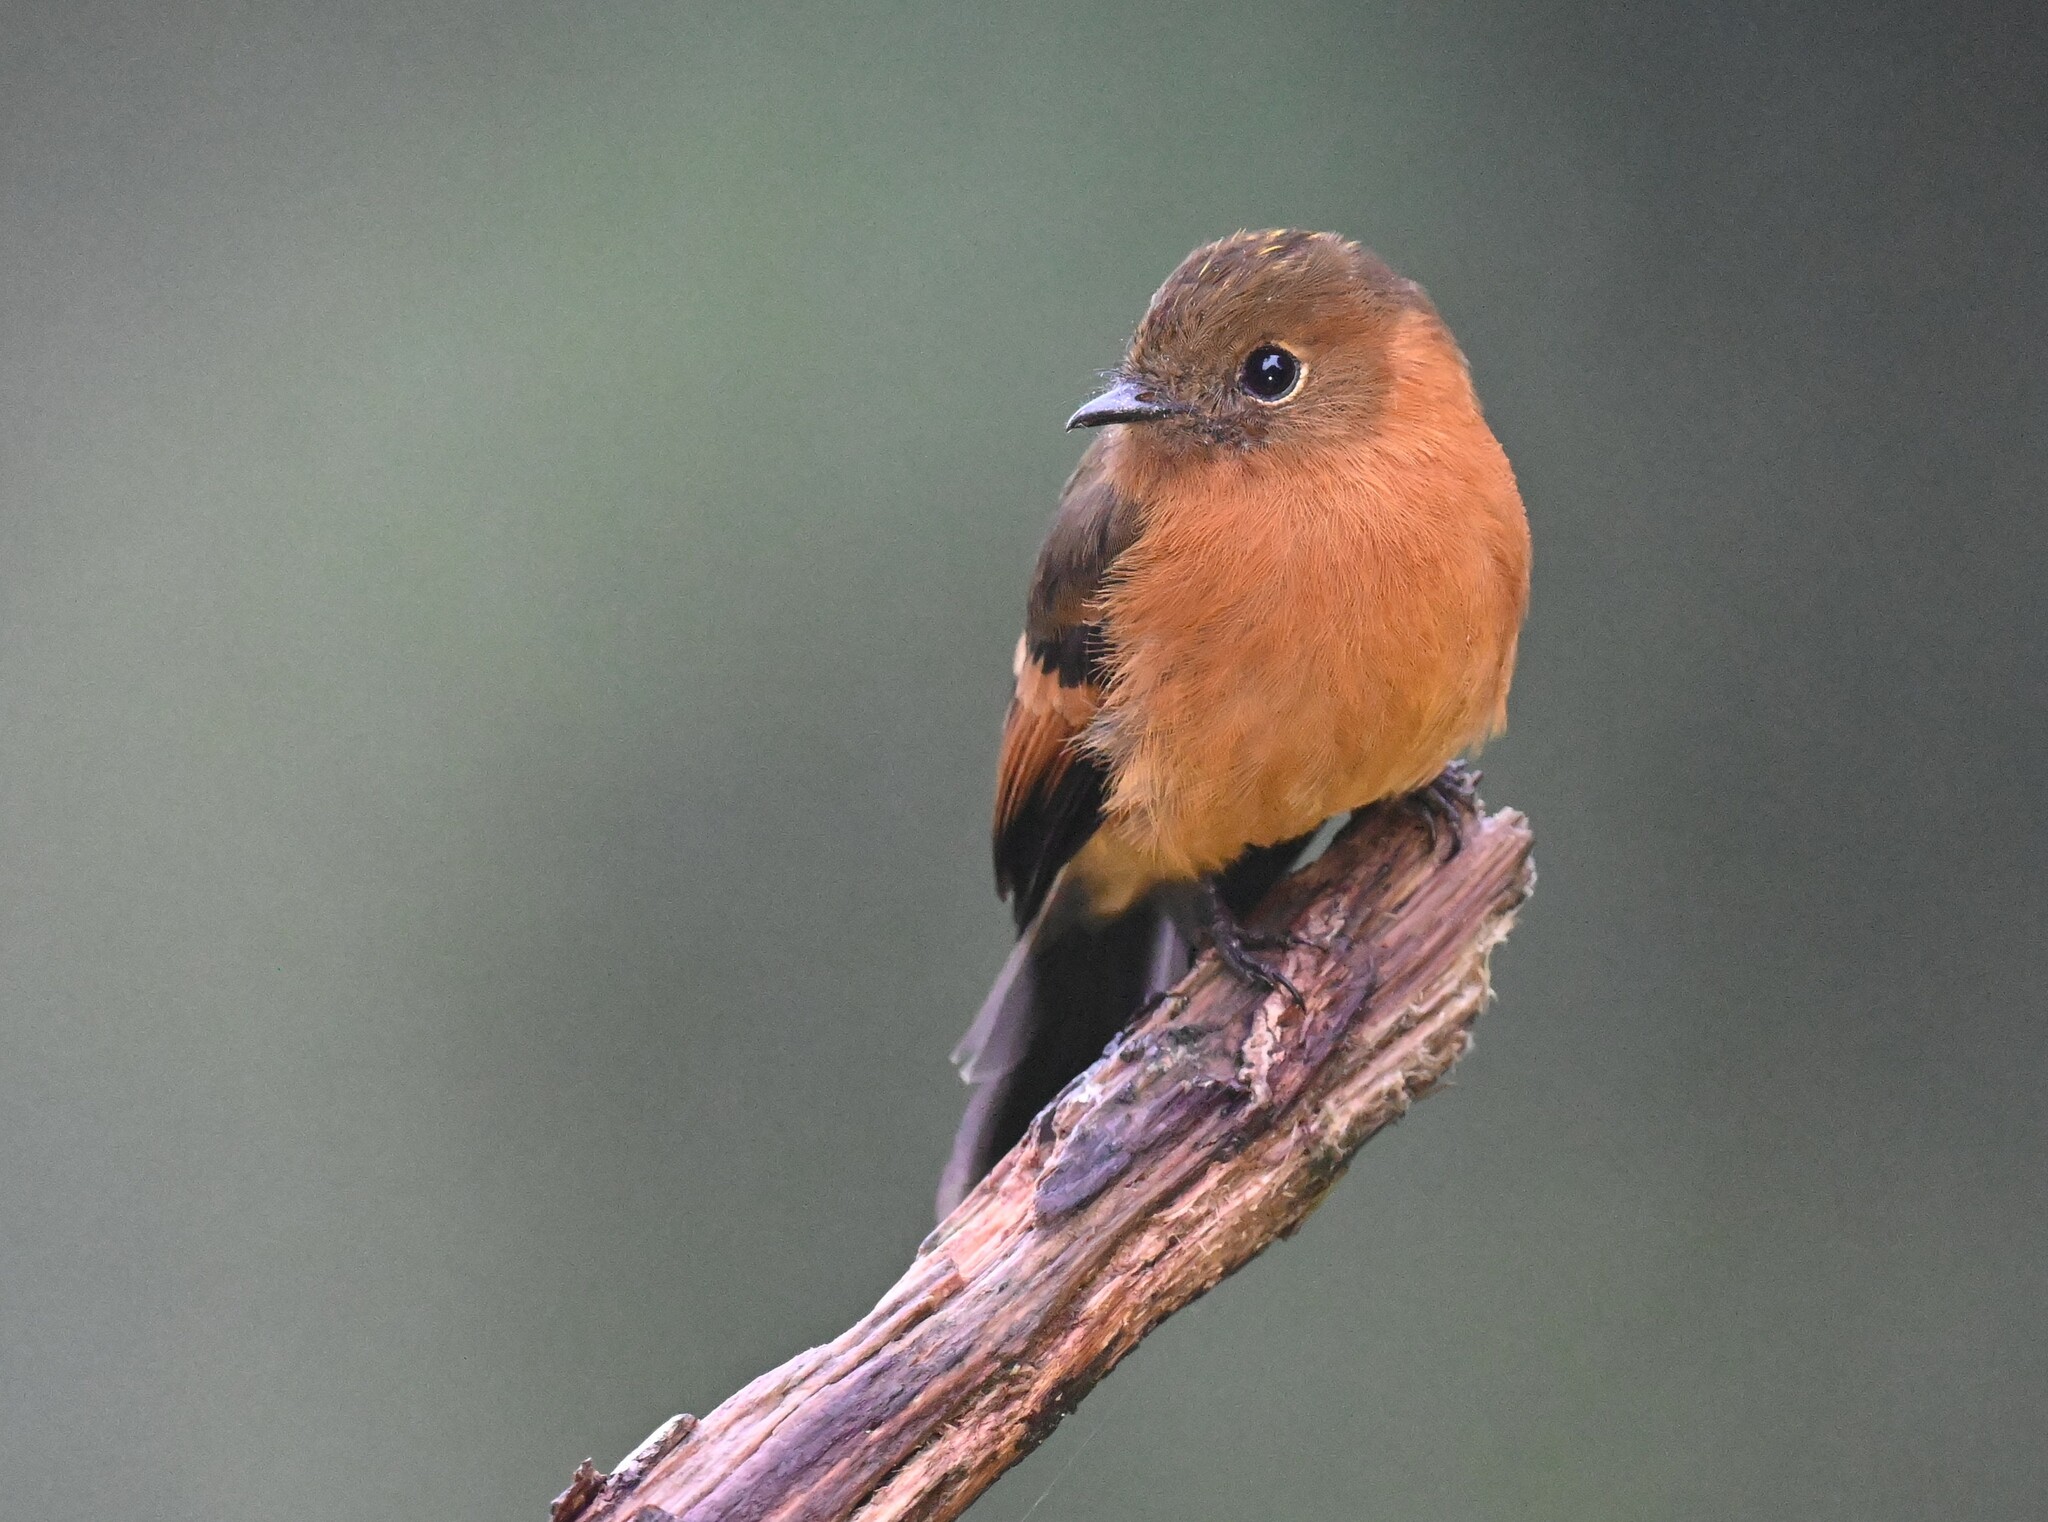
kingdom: Animalia
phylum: Chordata
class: Aves
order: Passeriformes
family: Tyrannidae
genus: Pyrrhomyias
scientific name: Pyrrhomyias cinnamomeus
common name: Cinnamon flycatcher
